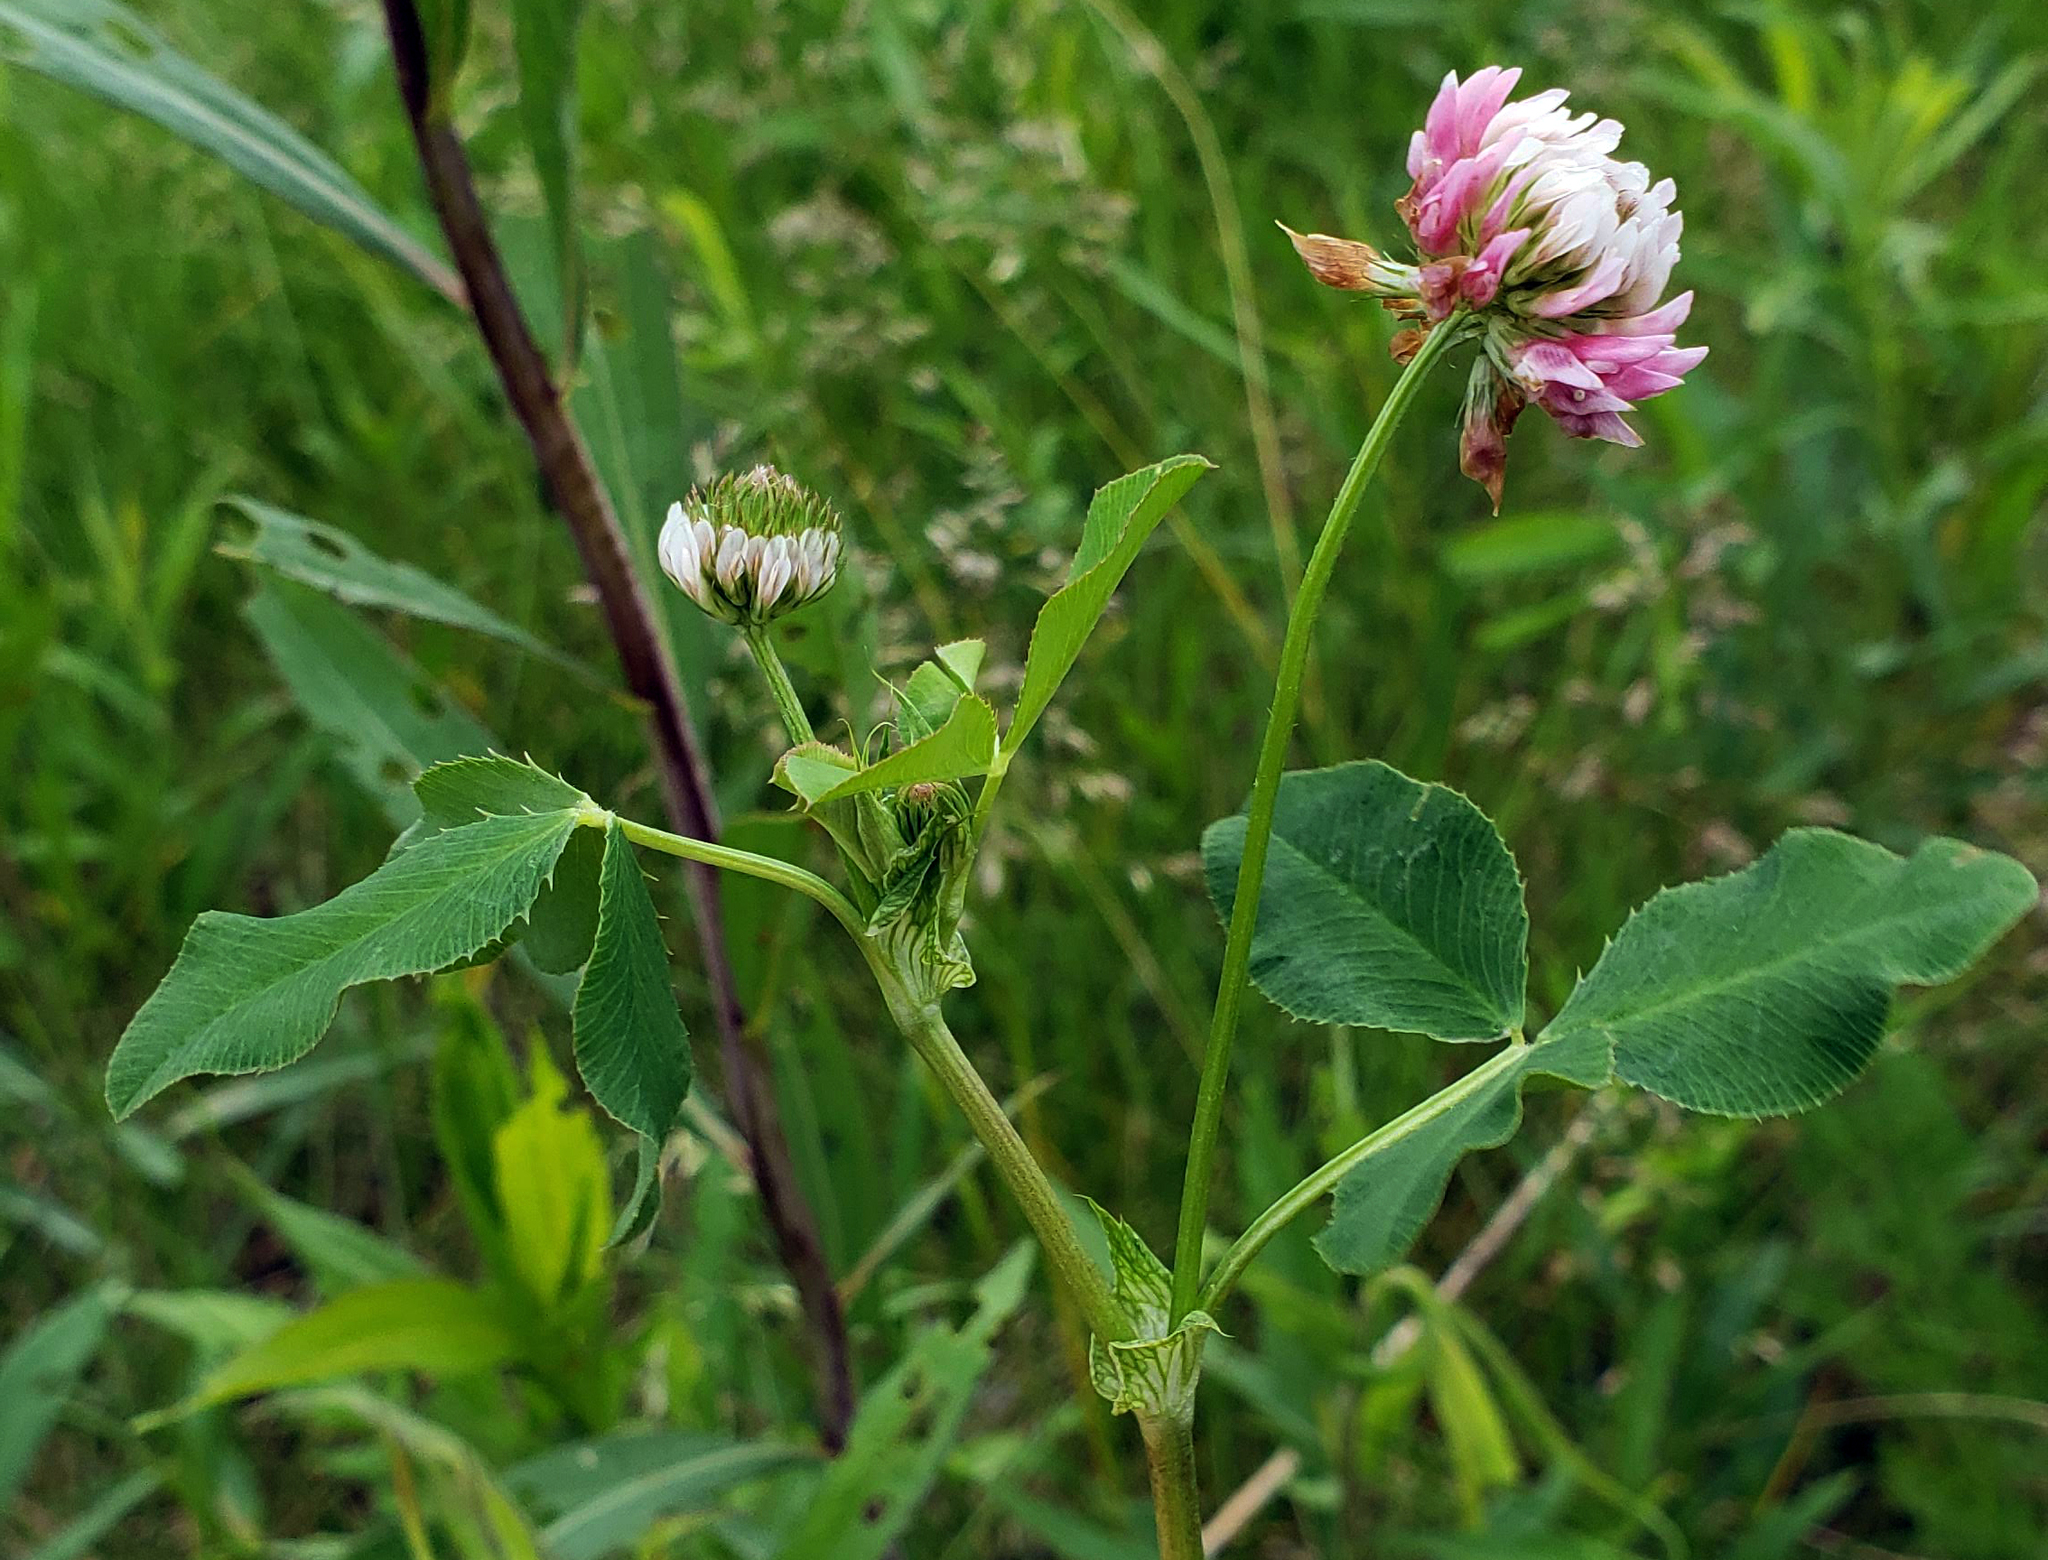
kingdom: Plantae
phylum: Tracheophyta
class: Magnoliopsida
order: Fabales
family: Fabaceae
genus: Trifolium
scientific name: Trifolium hybridum
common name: Alsike clover
